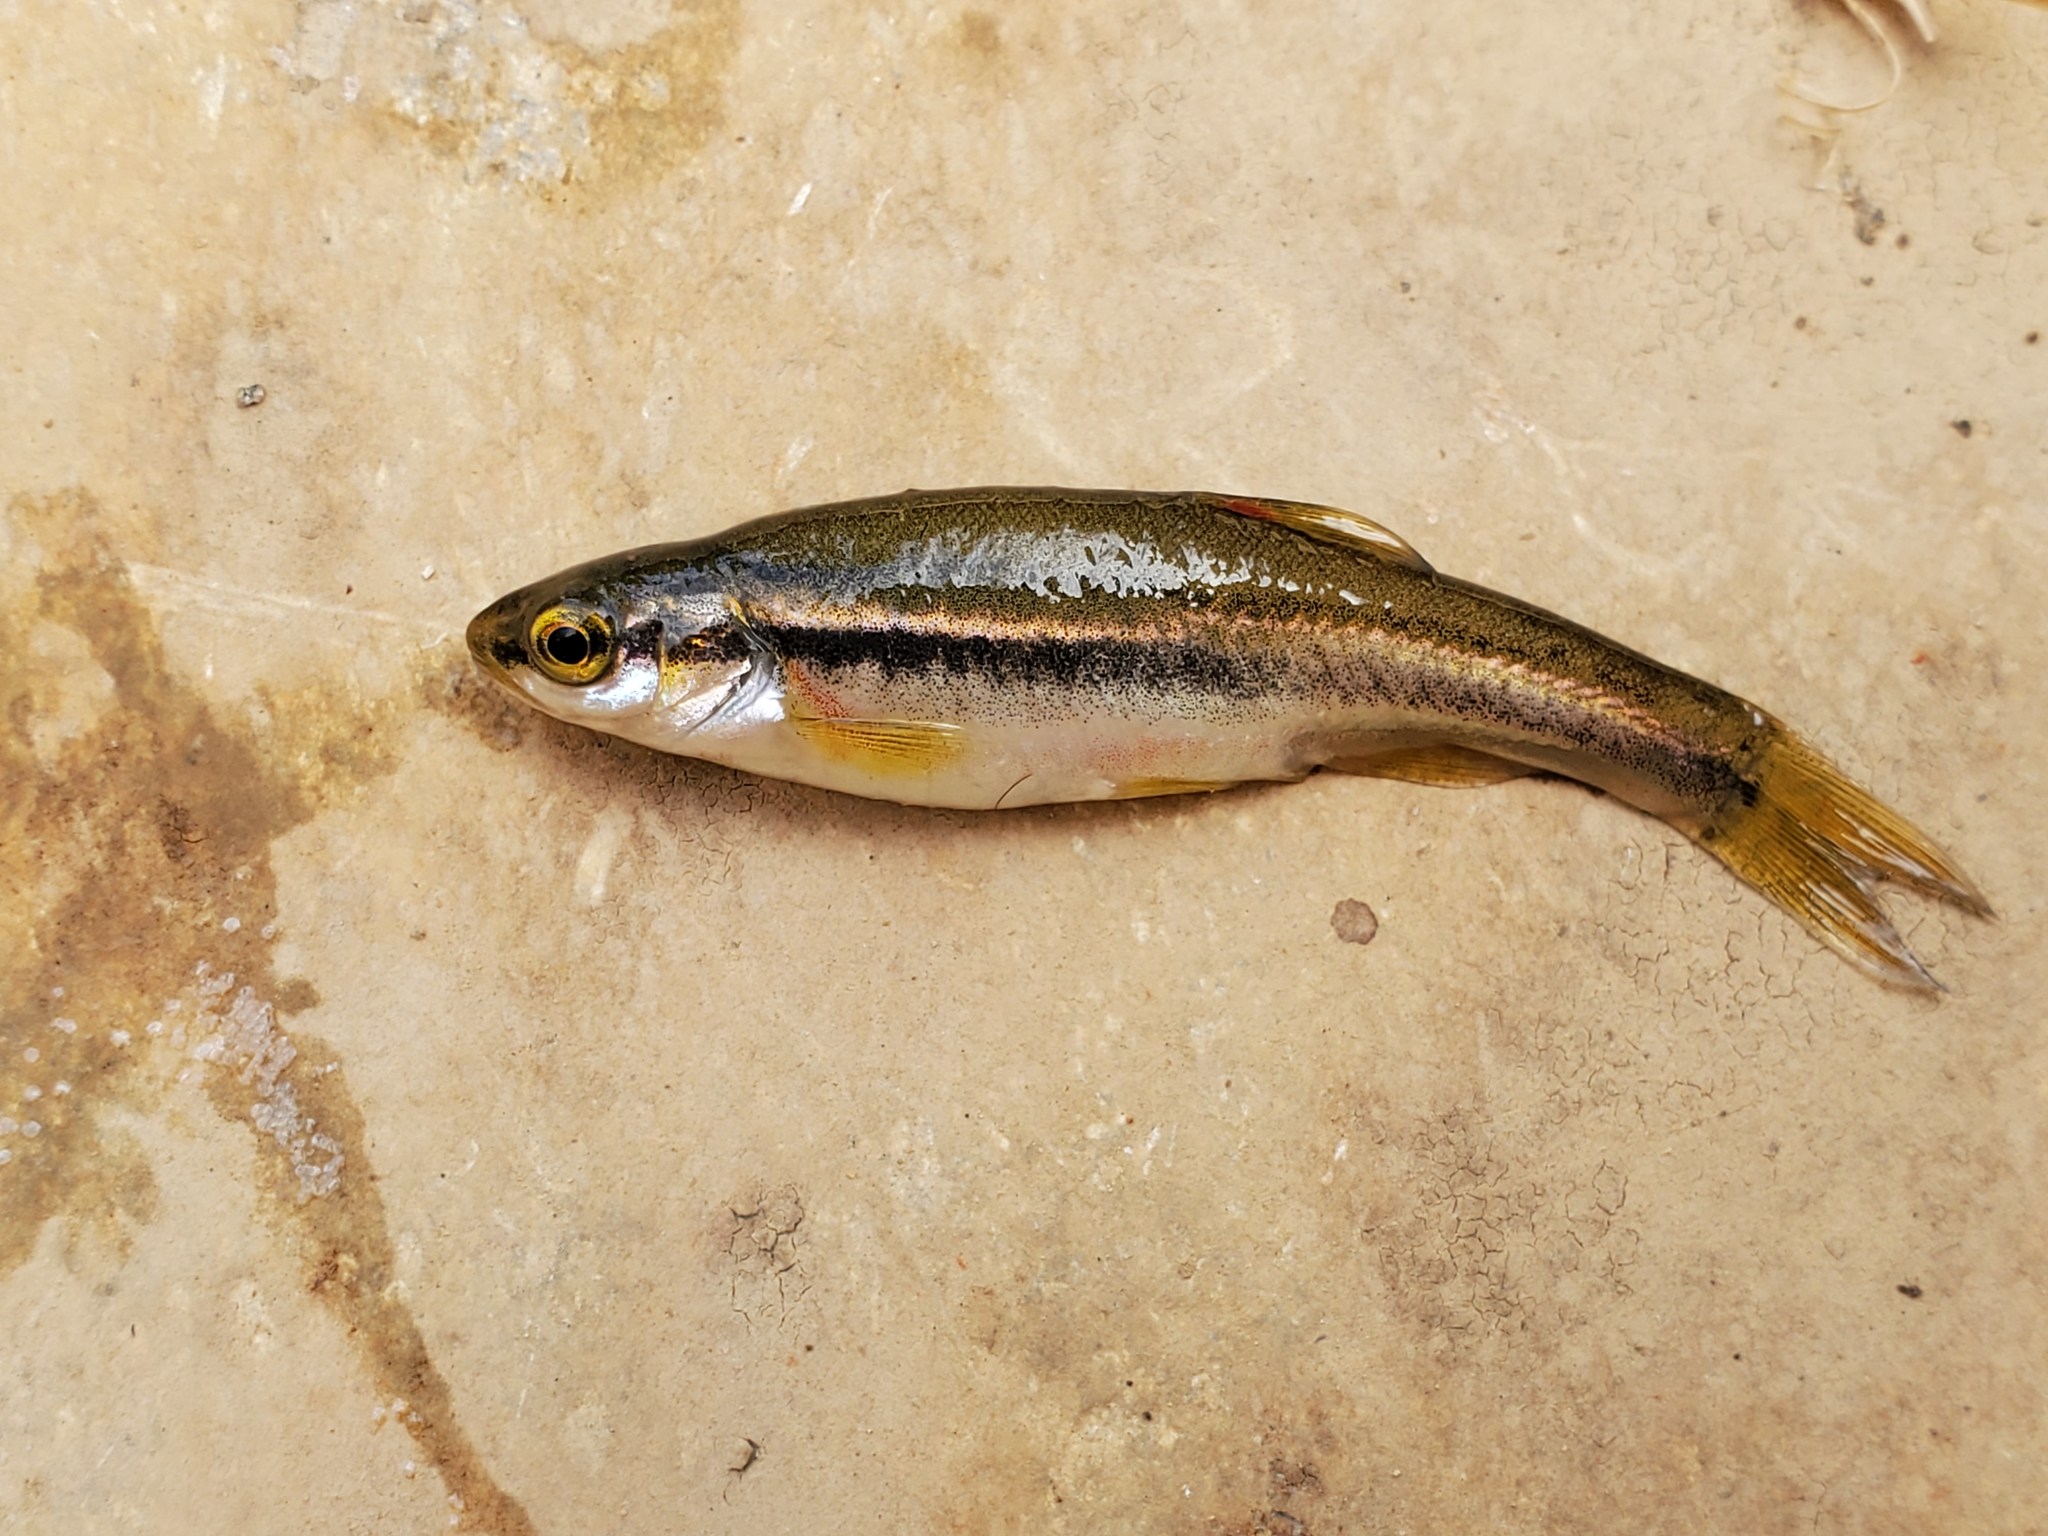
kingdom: Animalia
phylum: Chordata
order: Cypriniformes
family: Cyprinidae
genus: Chrosomus
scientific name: Chrosomus erythrogaster
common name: Southern redbelly dace
